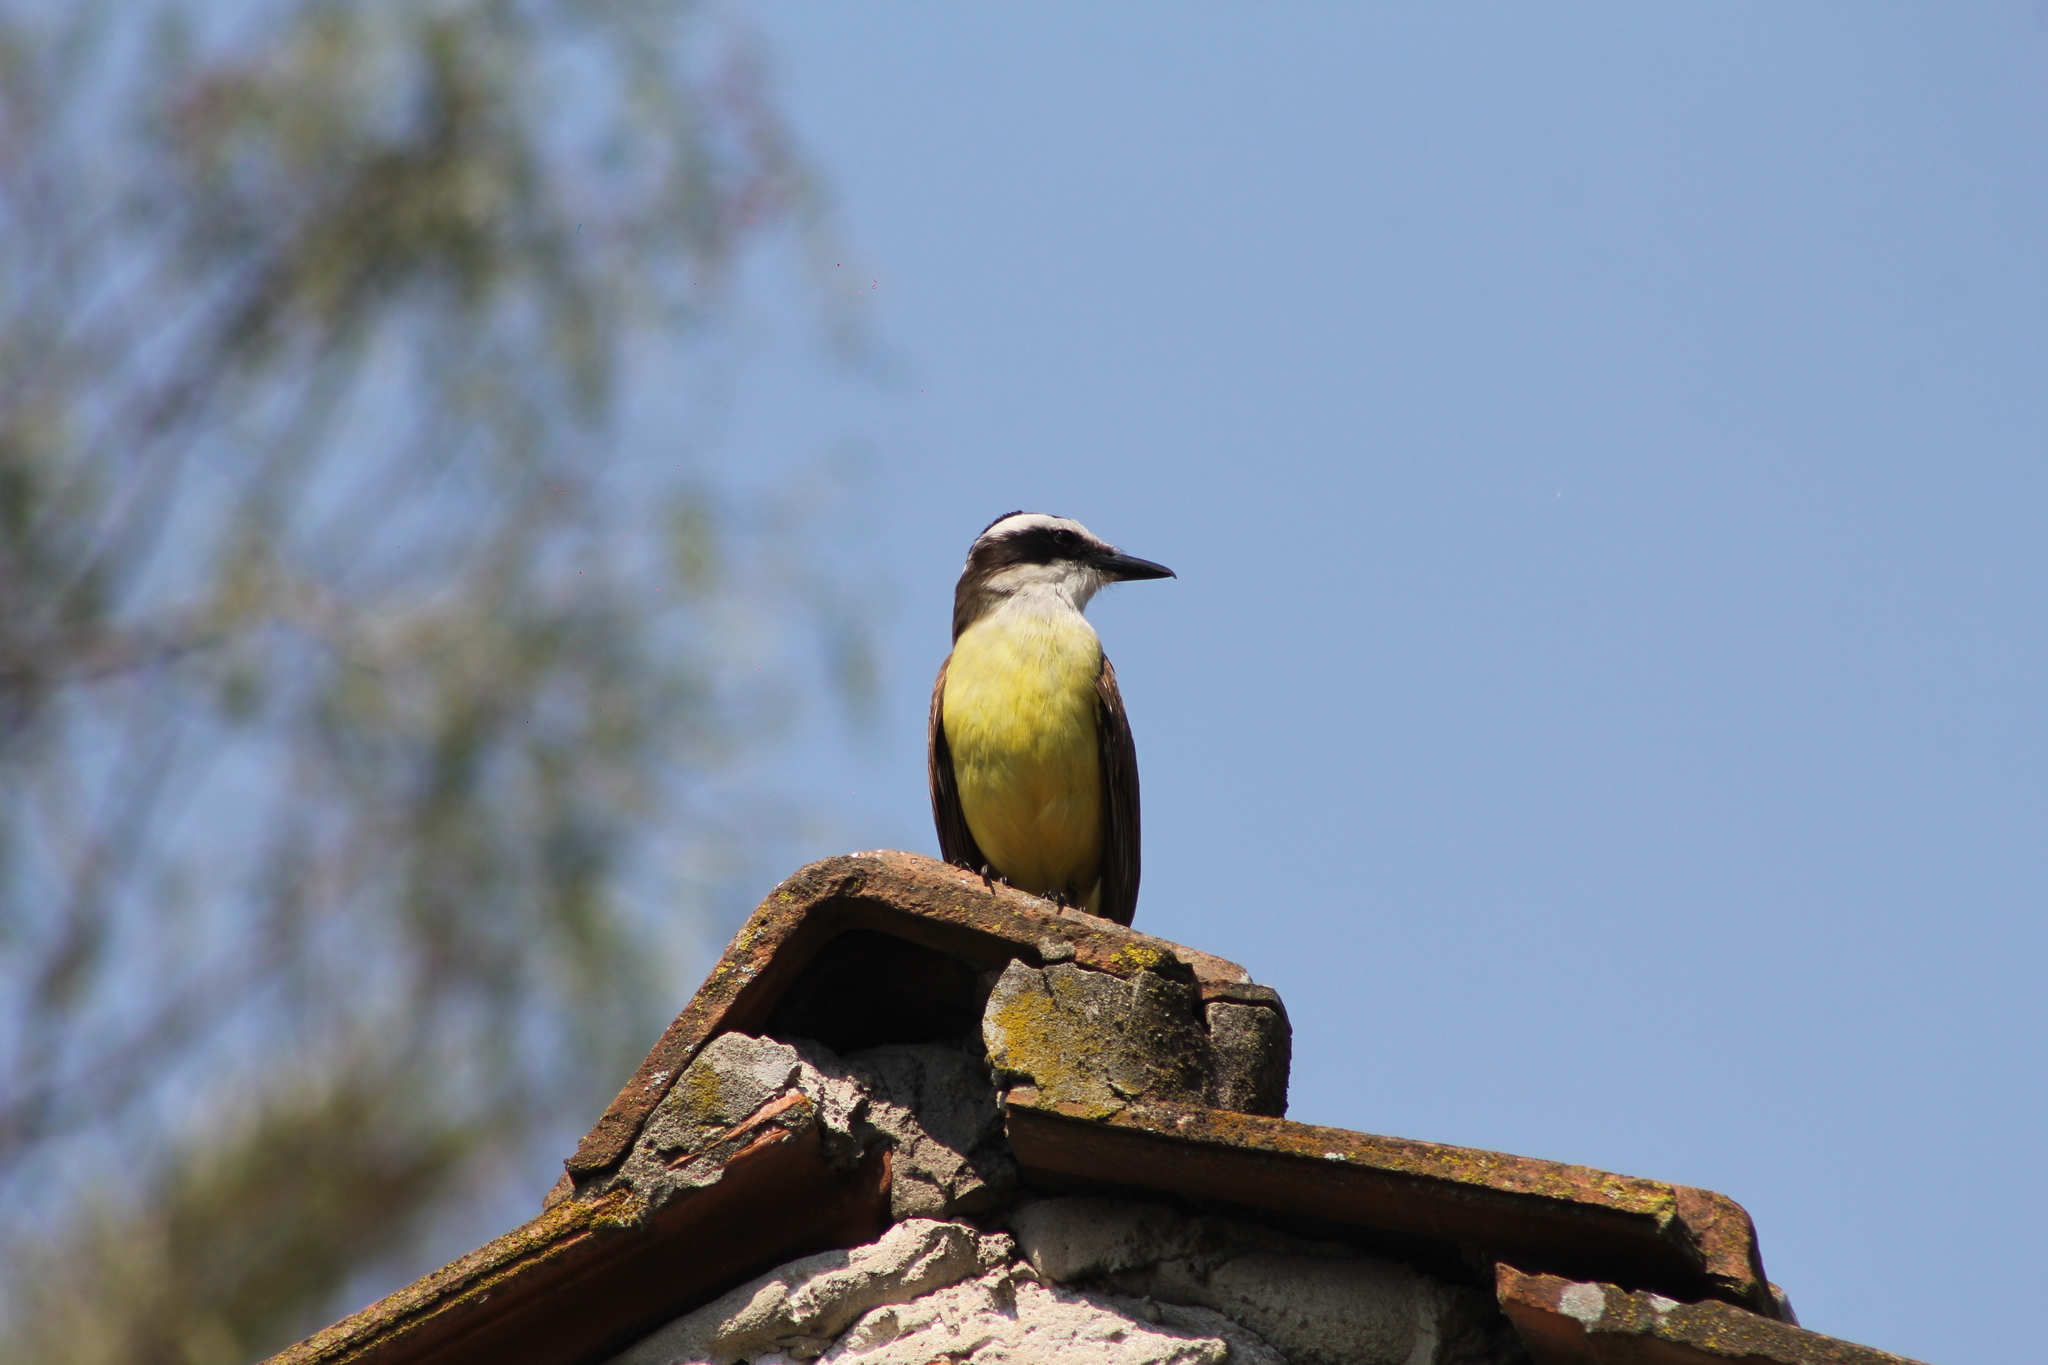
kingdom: Animalia
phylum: Chordata
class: Aves
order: Passeriformes
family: Tyrannidae
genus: Pitangus
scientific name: Pitangus sulphuratus
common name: Great kiskadee
